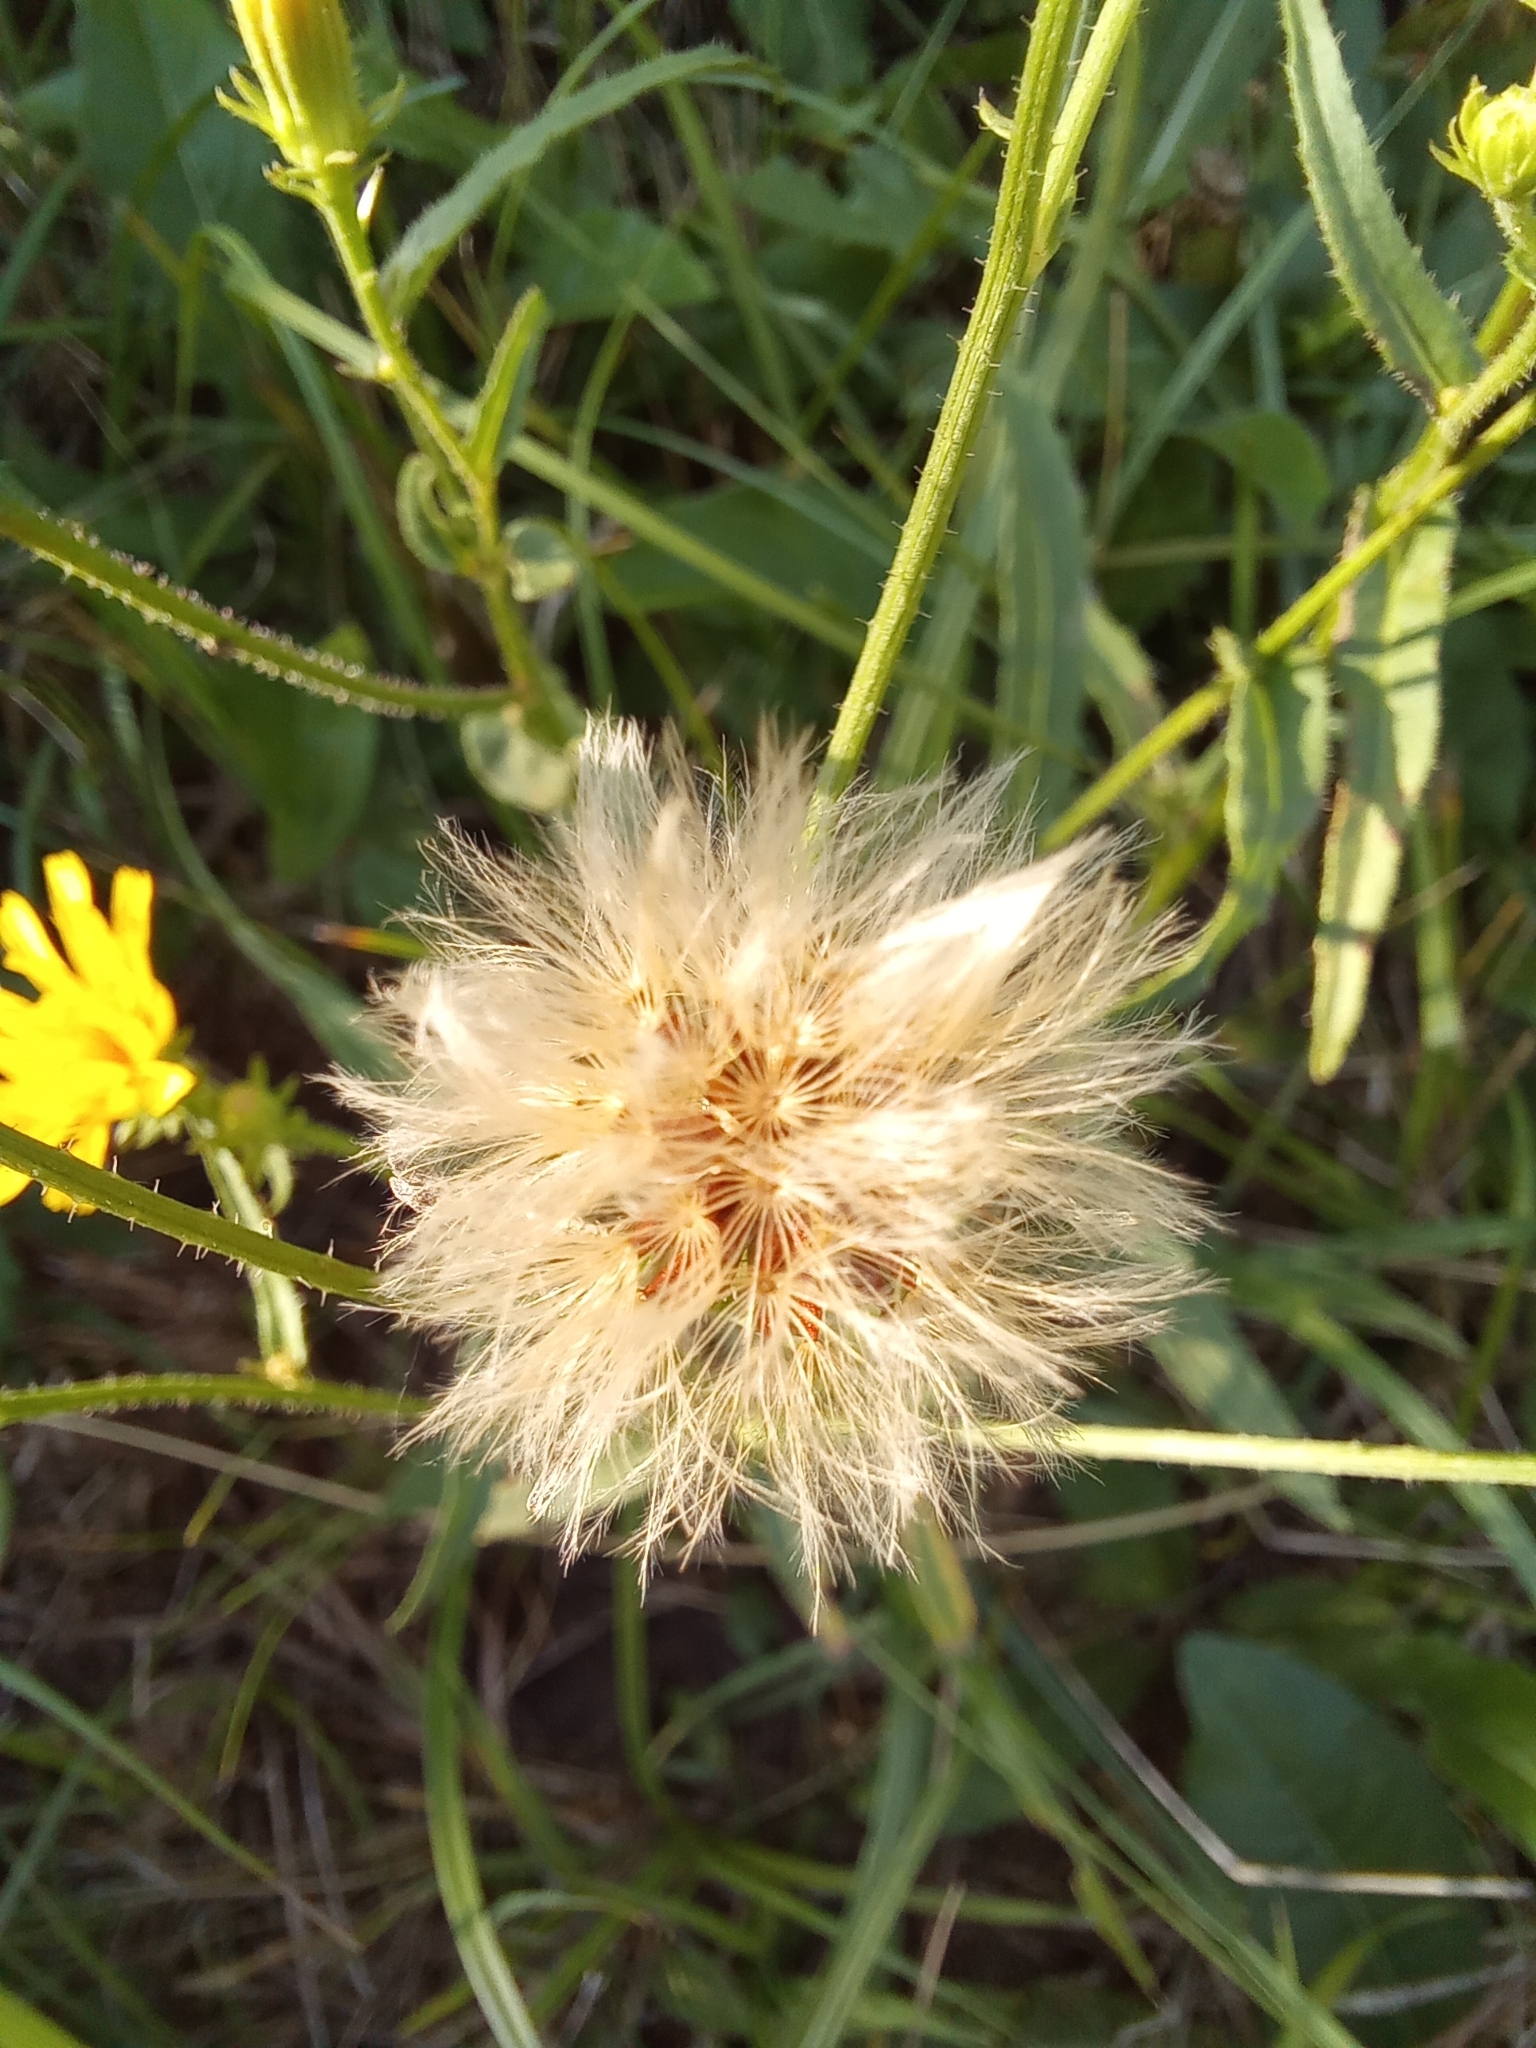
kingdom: Plantae
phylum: Tracheophyta
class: Magnoliopsida
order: Asterales
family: Asteraceae
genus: Picris
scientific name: Picris hieracioides
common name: Hawkweed oxtongue
